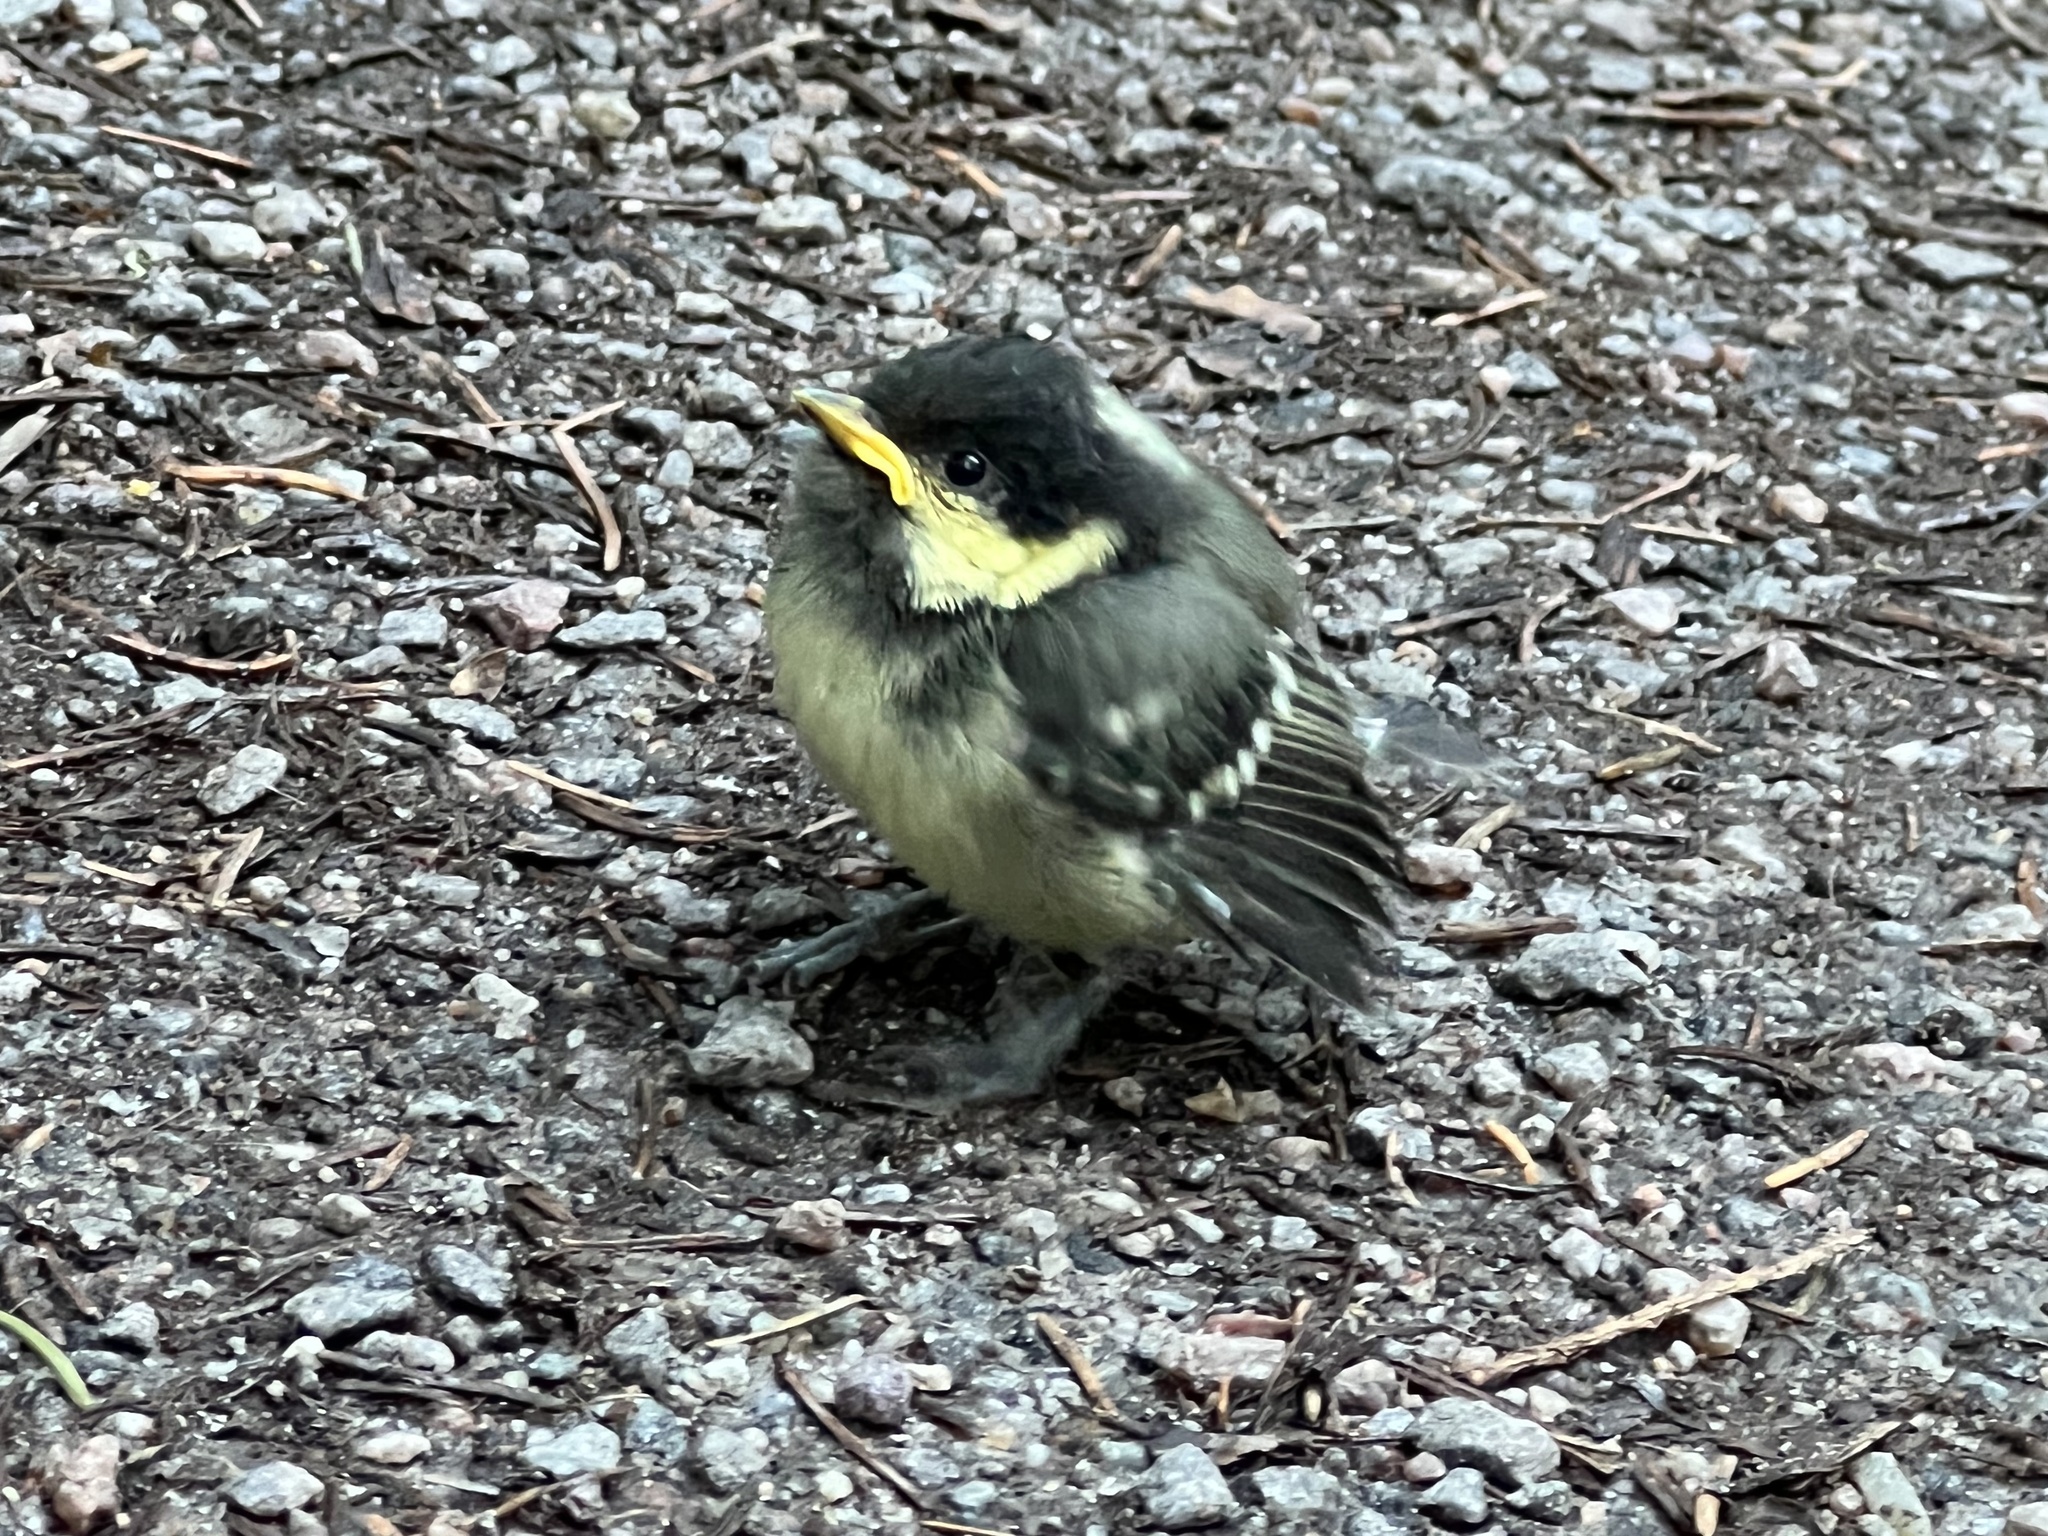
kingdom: Animalia
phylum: Chordata
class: Aves
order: Passeriformes
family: Paridae
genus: Periparus
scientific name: Periparus ater
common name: Coal tit
